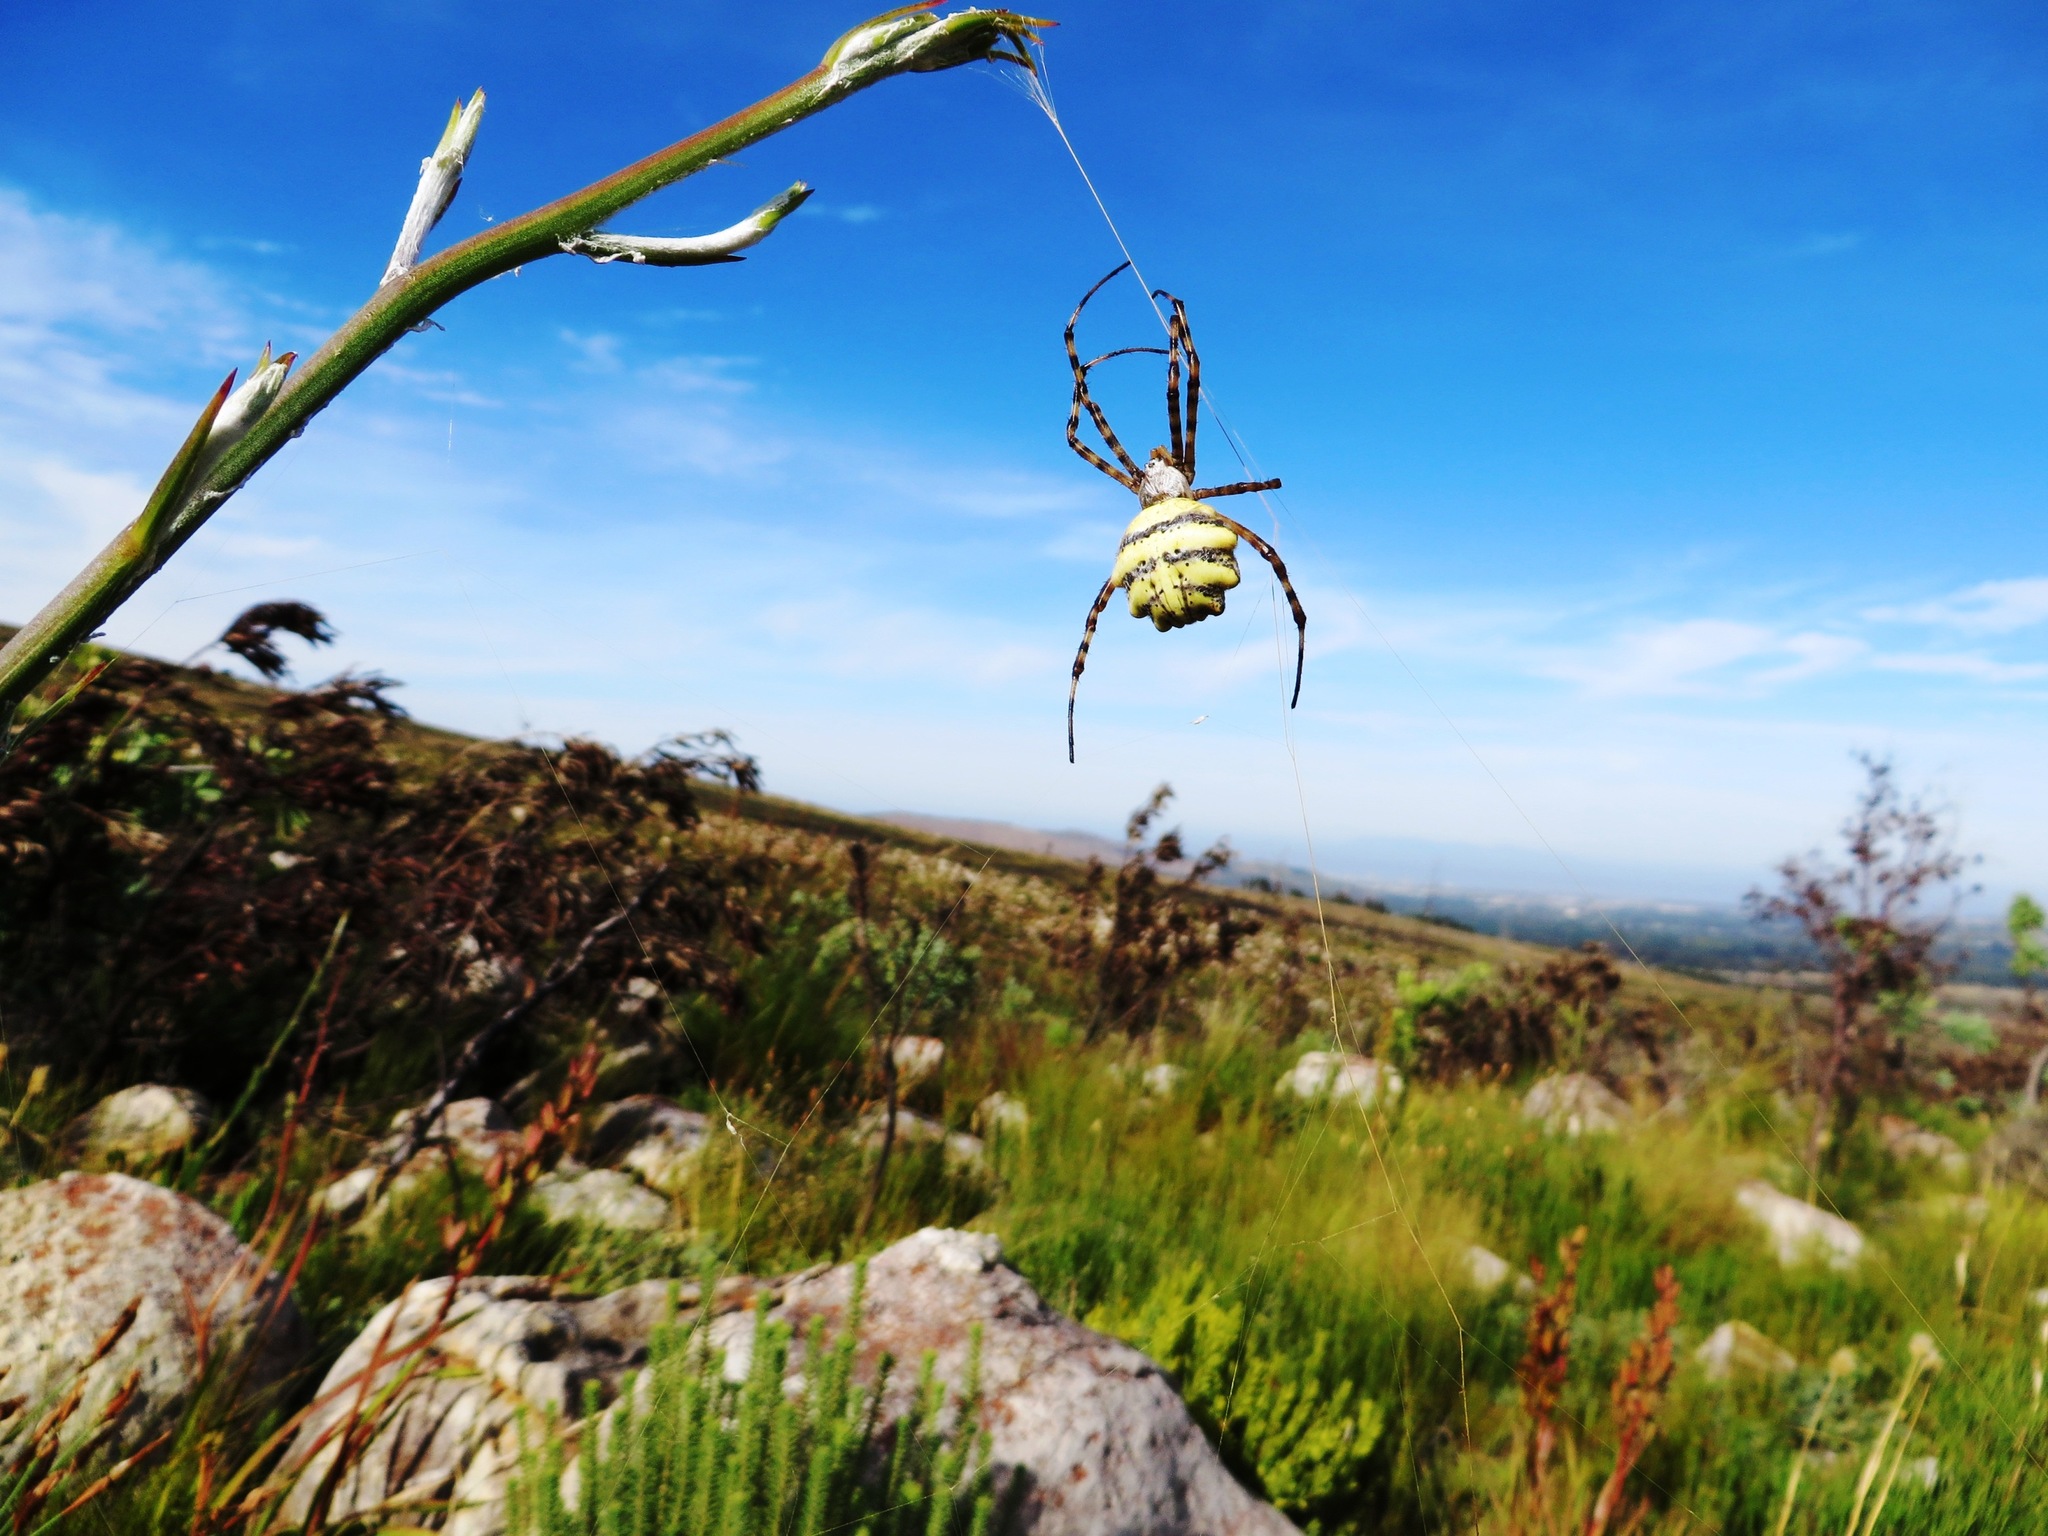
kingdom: Animalia
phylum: Arthropoda
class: Arachnida
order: Araneae
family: Araneidae
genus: Argiope
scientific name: Argiope australis
